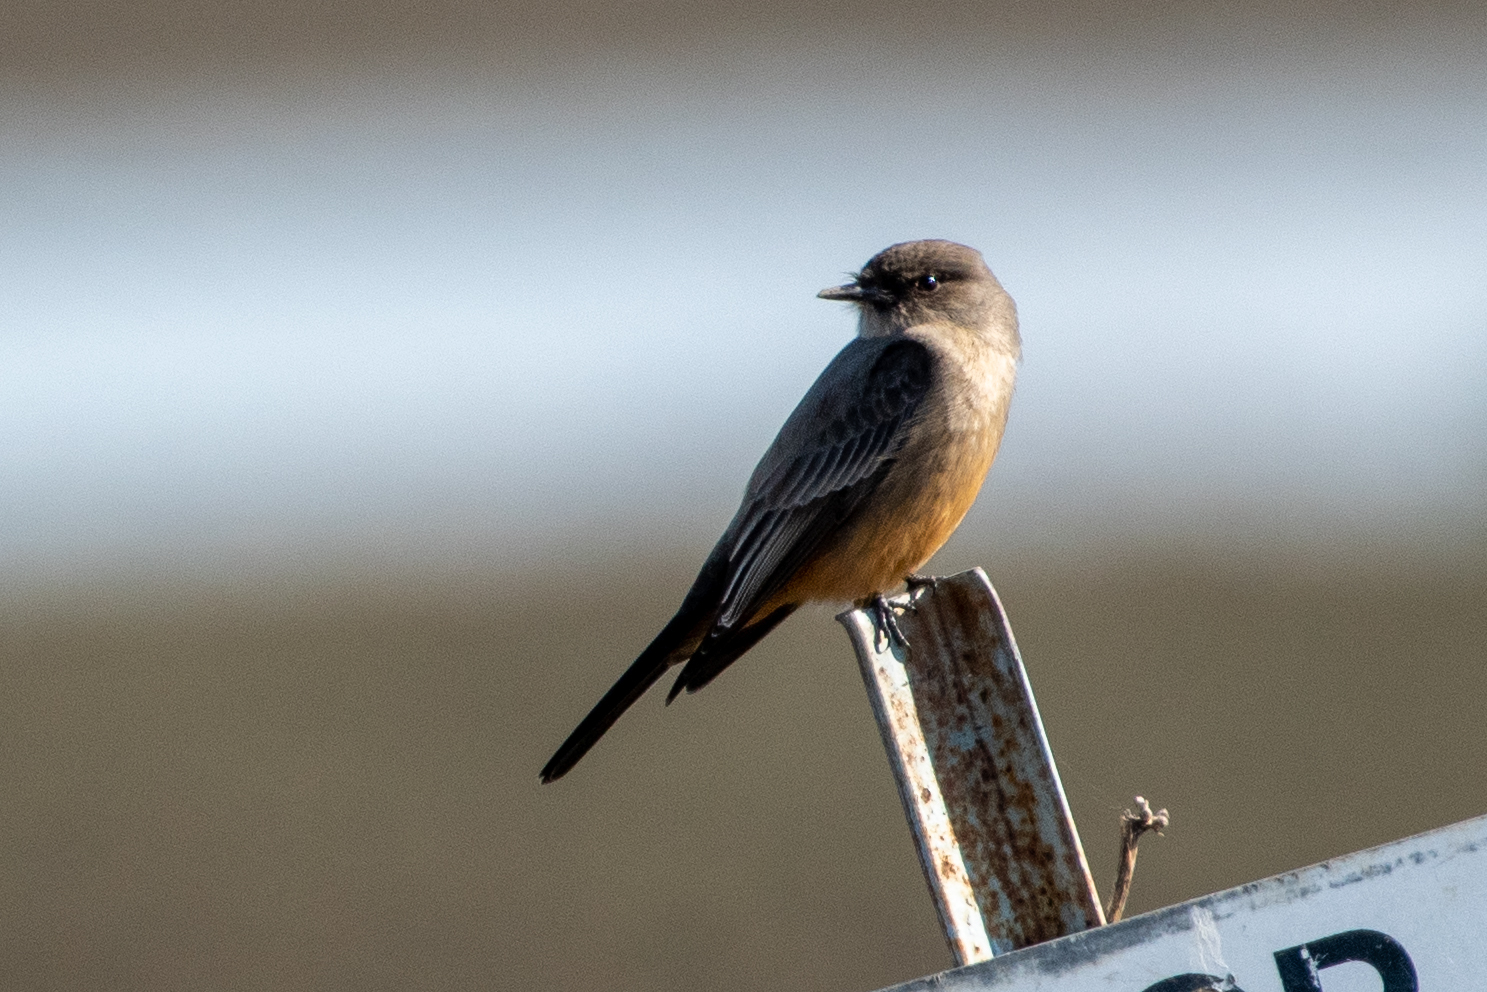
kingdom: Animalia
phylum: Chordata
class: Aves
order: Passeriformes
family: Tyrannidae
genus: Sayornis
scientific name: Sayornis saya
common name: Say's phoebe
